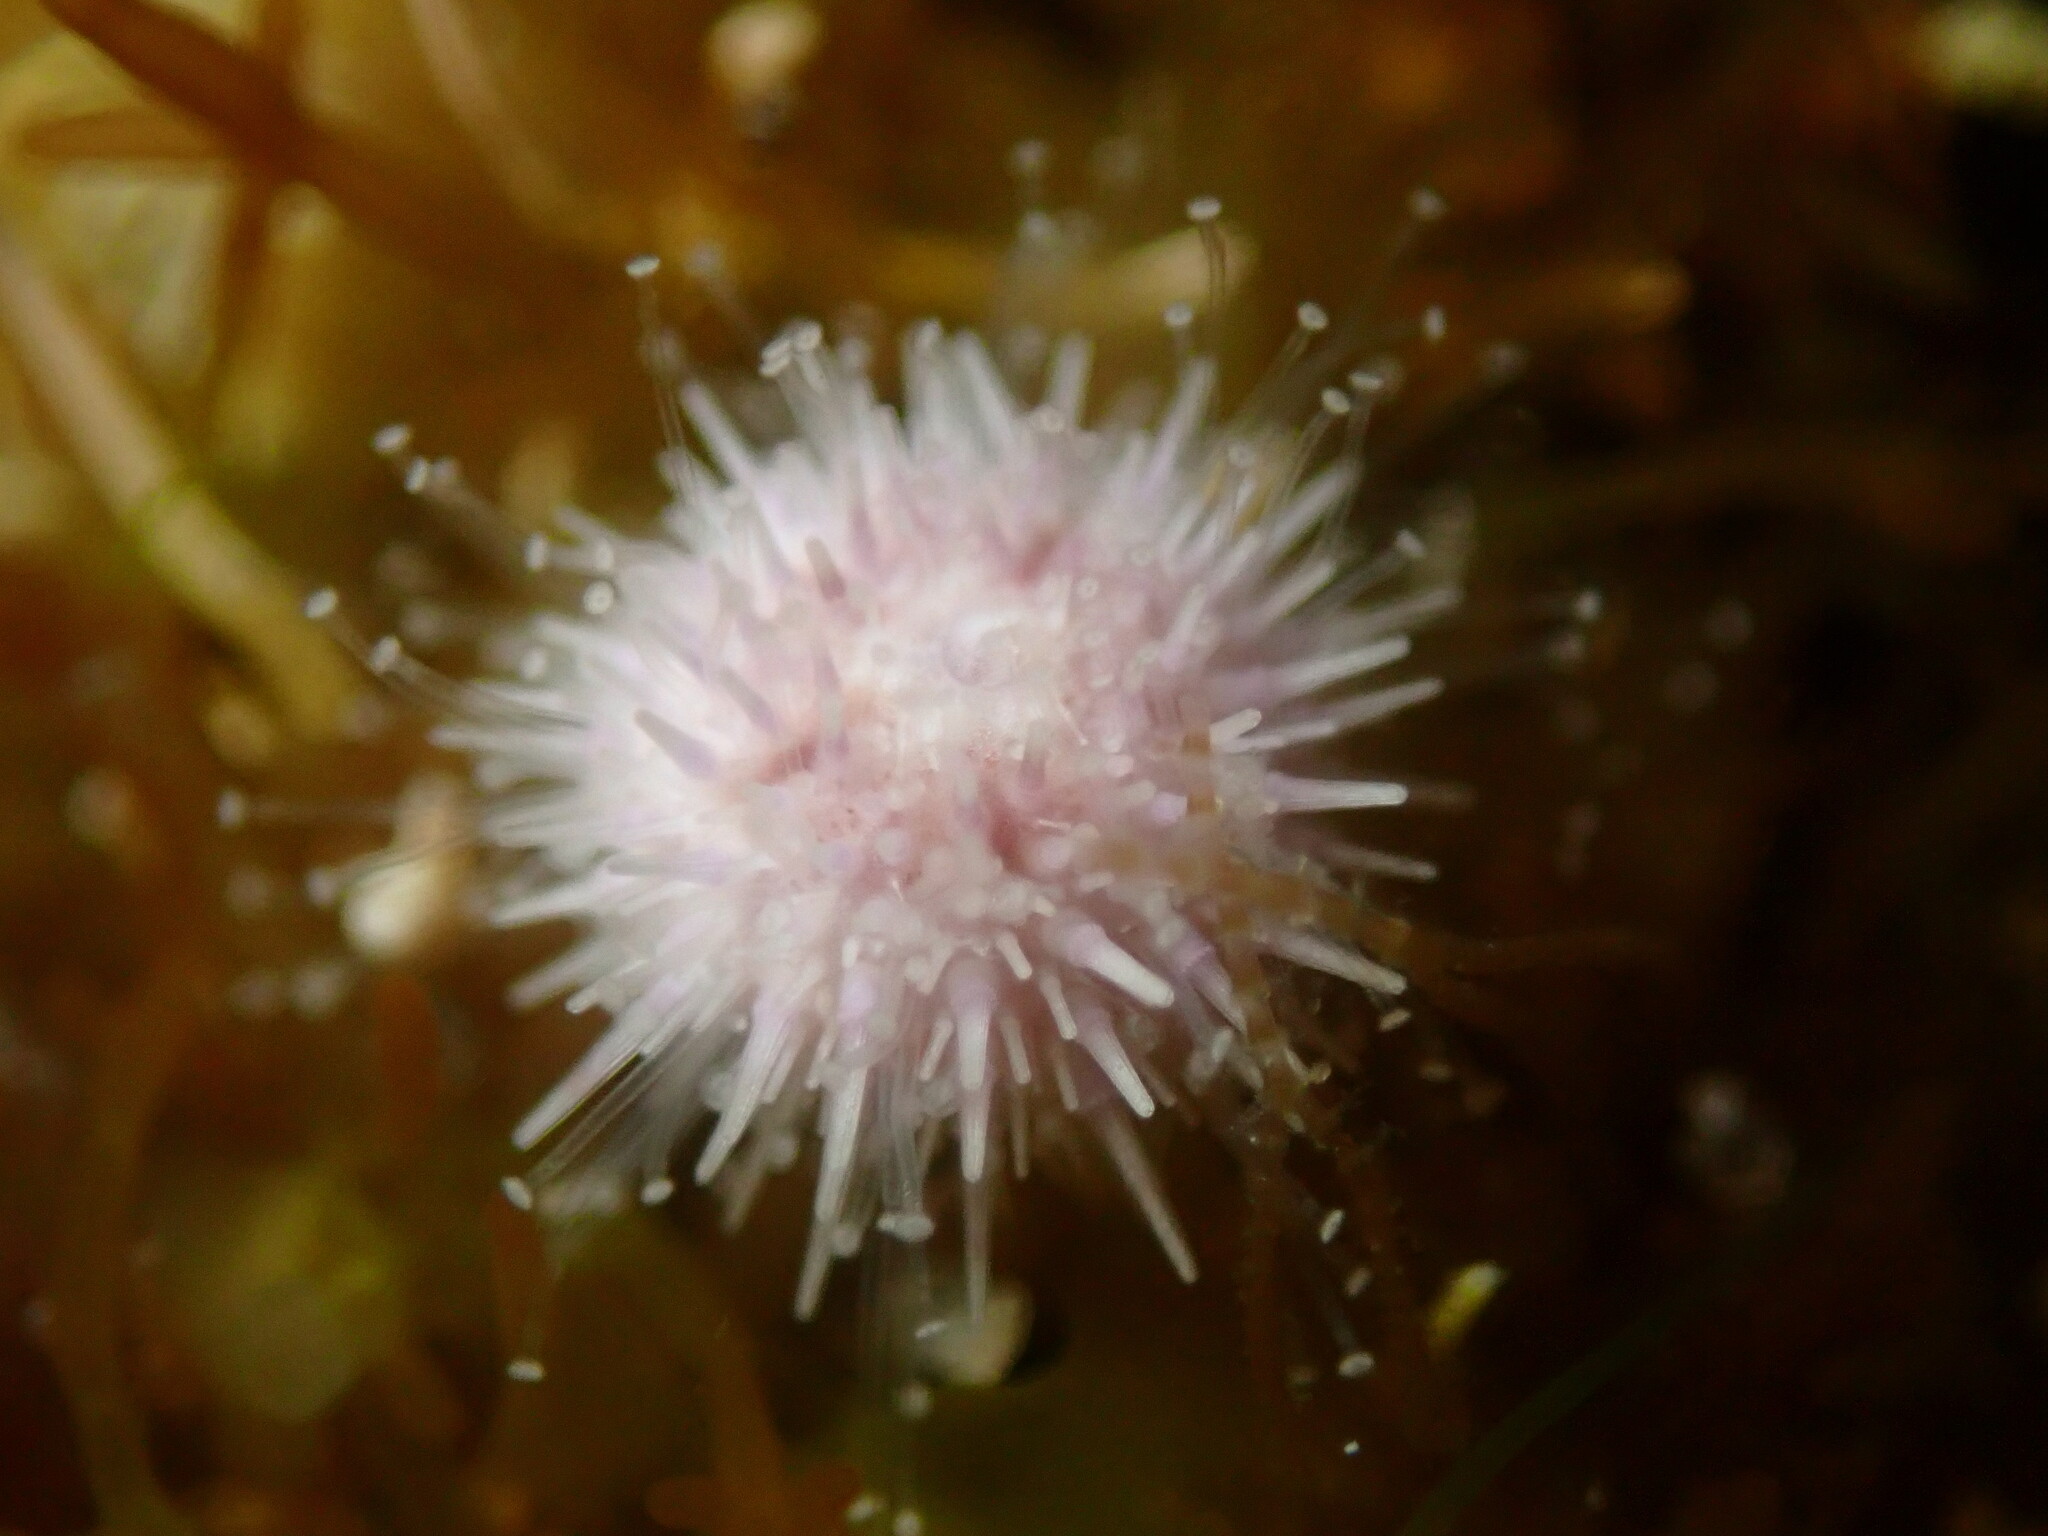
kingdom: Animalia
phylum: Echinodermata
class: Echinoidea
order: Camarodonta
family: Strongylocentrotidae
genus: Strongylocentrotus
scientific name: Strongylocentrotus purpuratus
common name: Purple sea urchin
